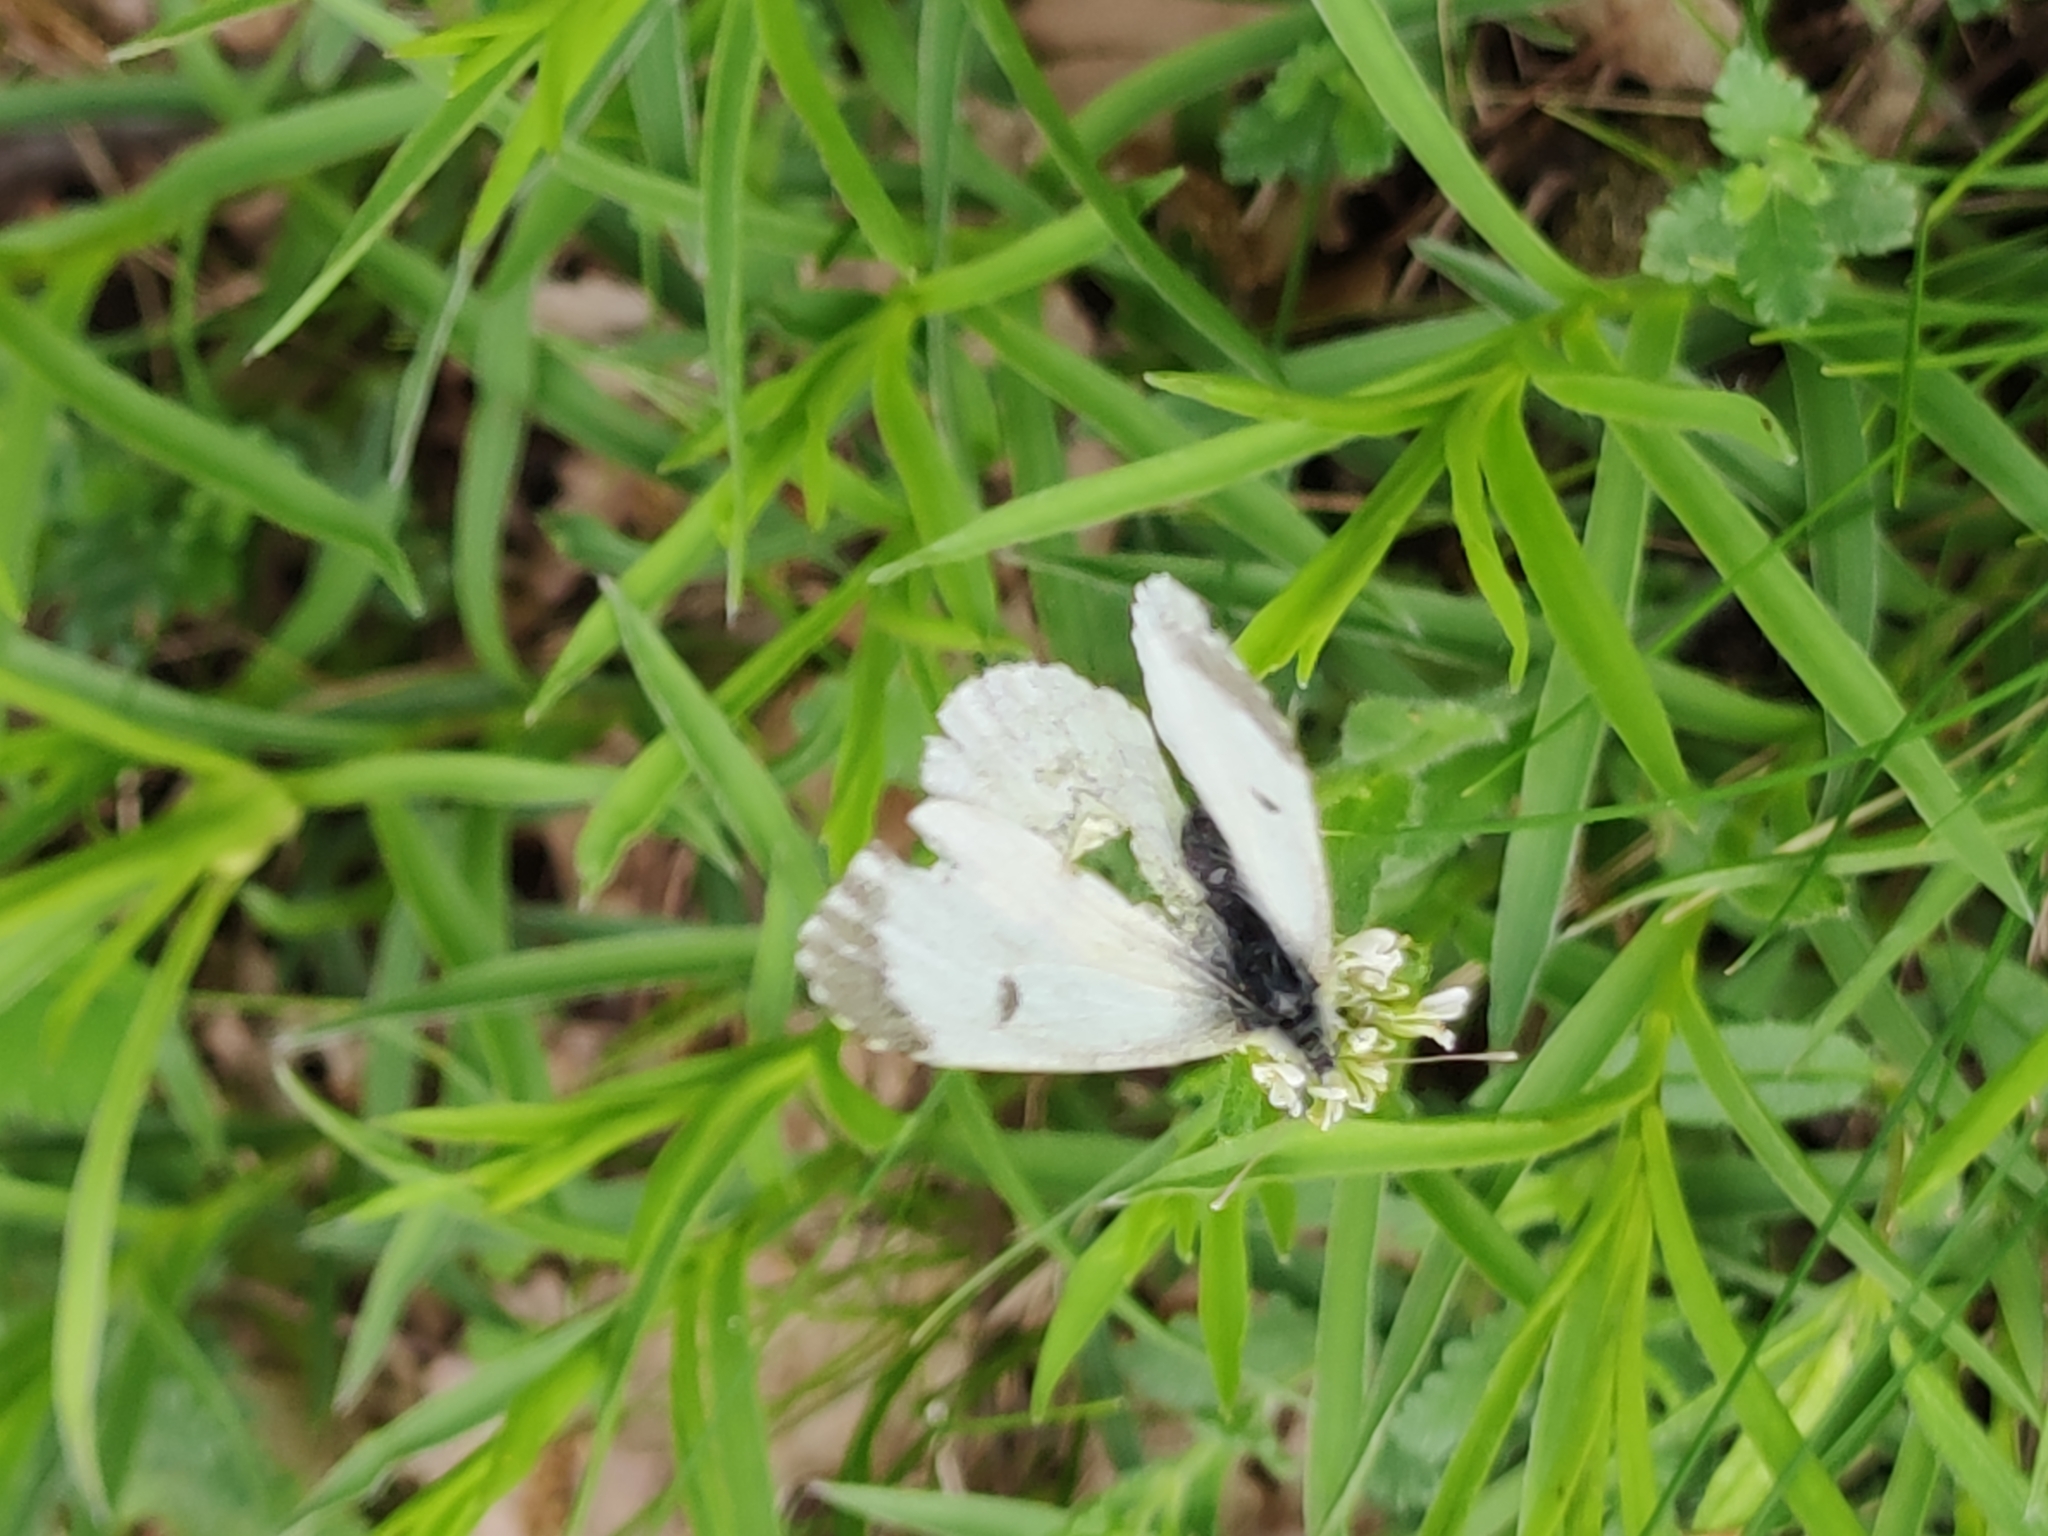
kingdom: Animalia
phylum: Arthropoda
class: Insecta
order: Lepidoptera
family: Pieridae
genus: Anthocharis
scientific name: Anthocharis cardamines
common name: Orange-tip
